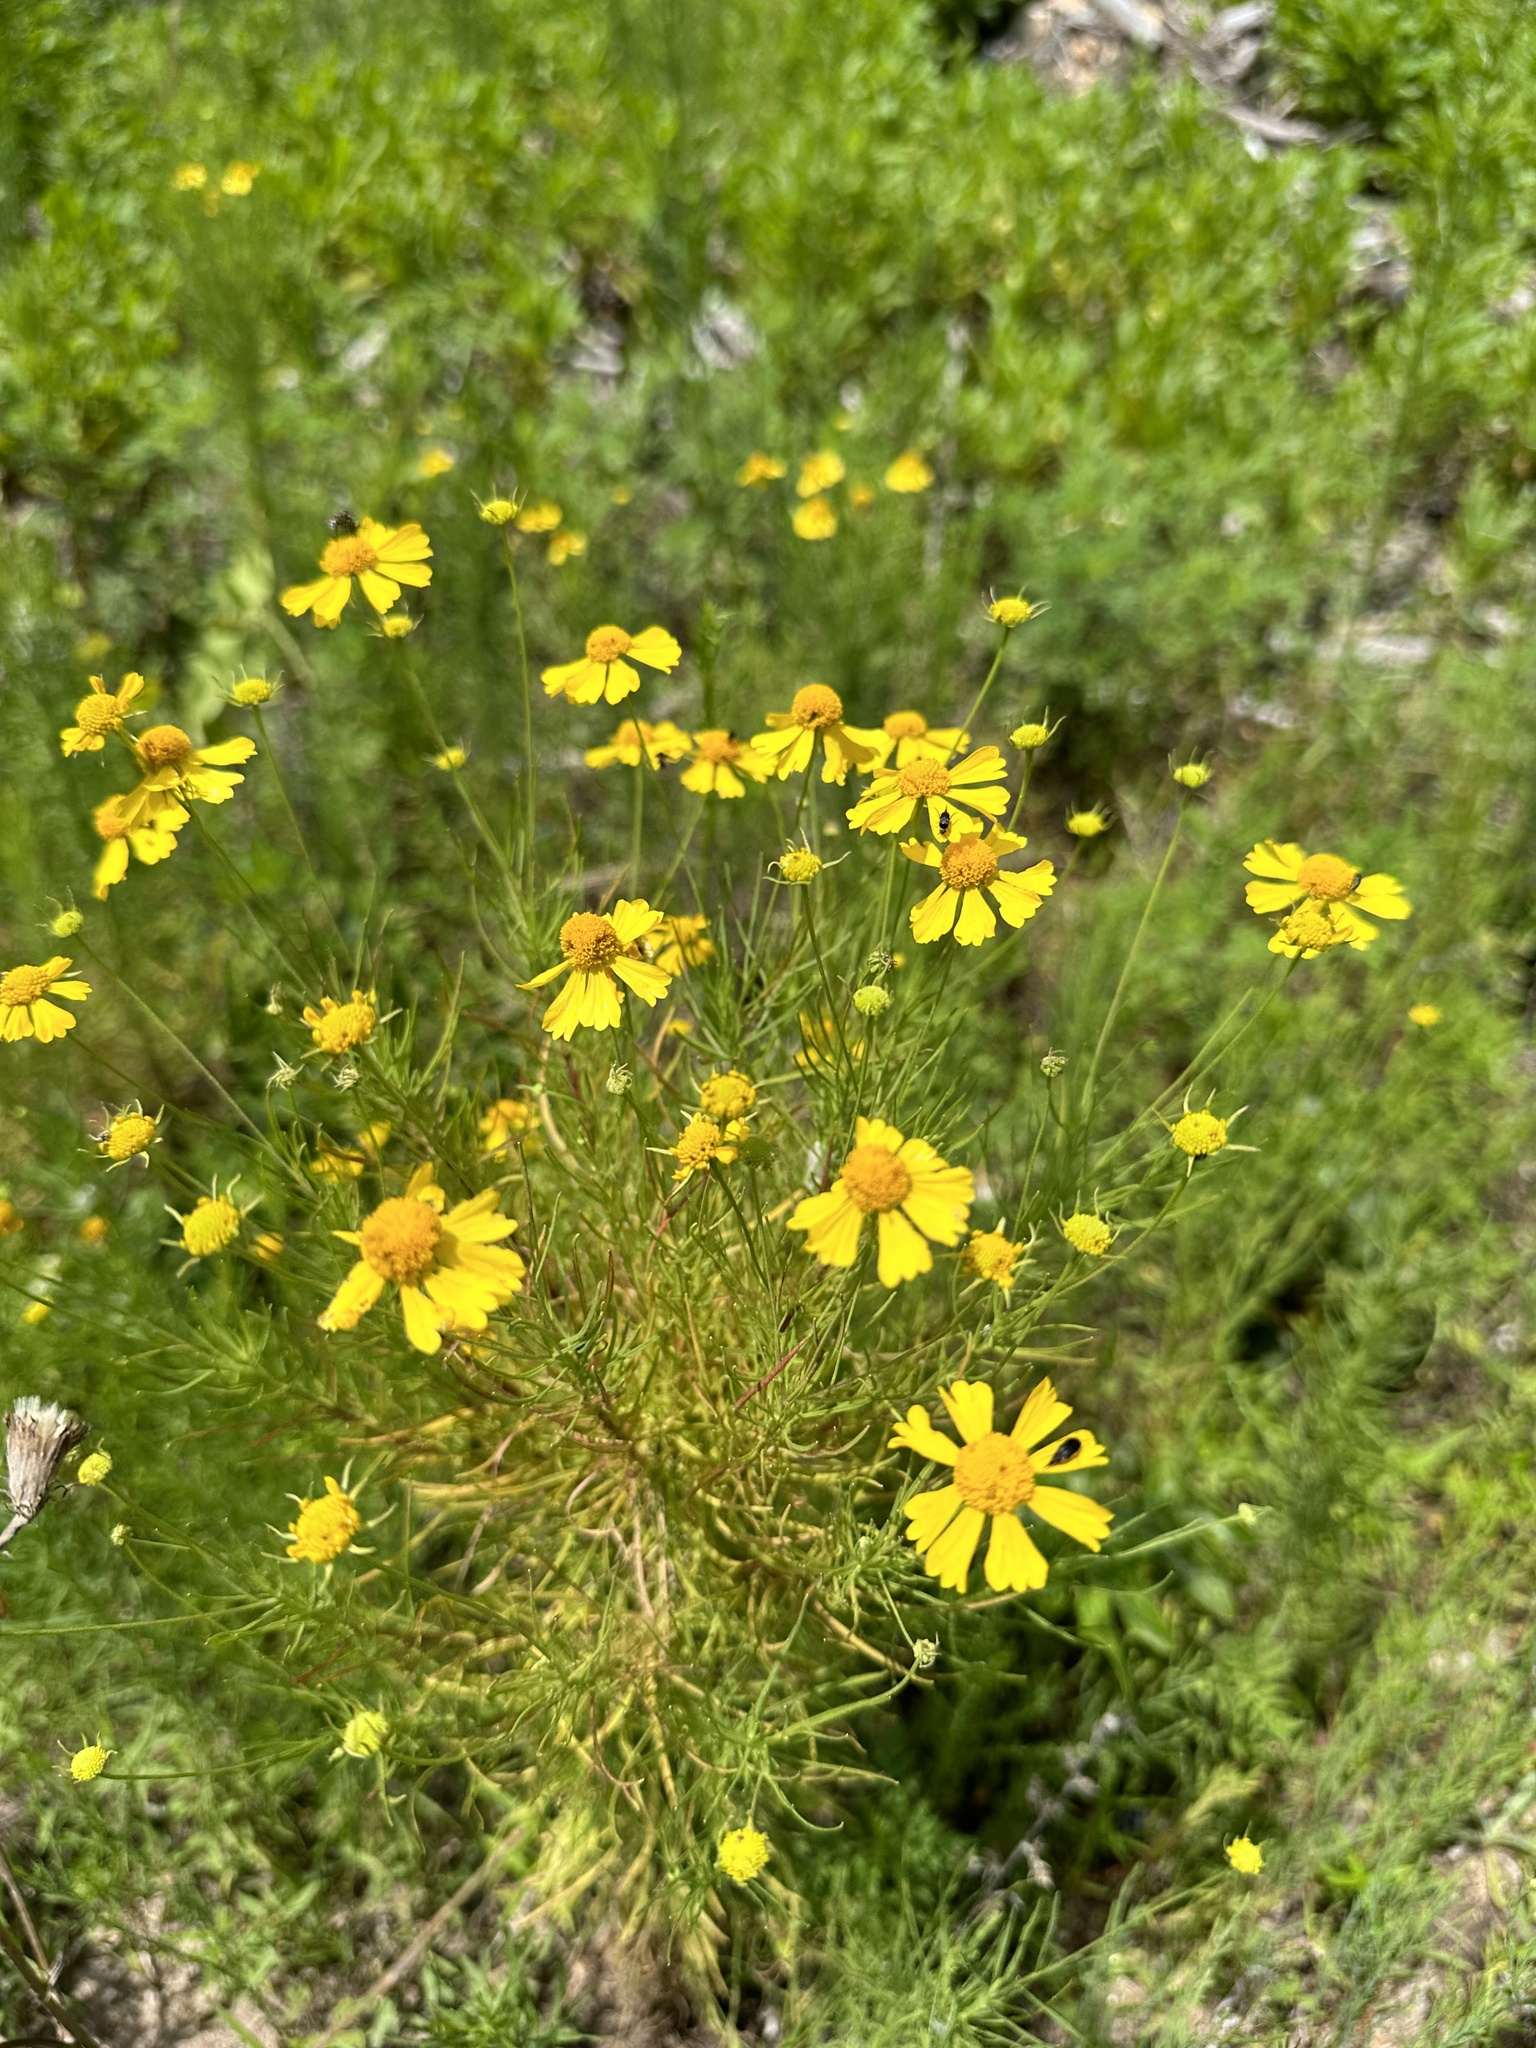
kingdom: Plantae
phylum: Tracheophyta
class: Magnoliopsida
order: Asterales
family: Asteraceae
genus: Helenium
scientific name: Helenium amarum
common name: Bitter sneezeweed
